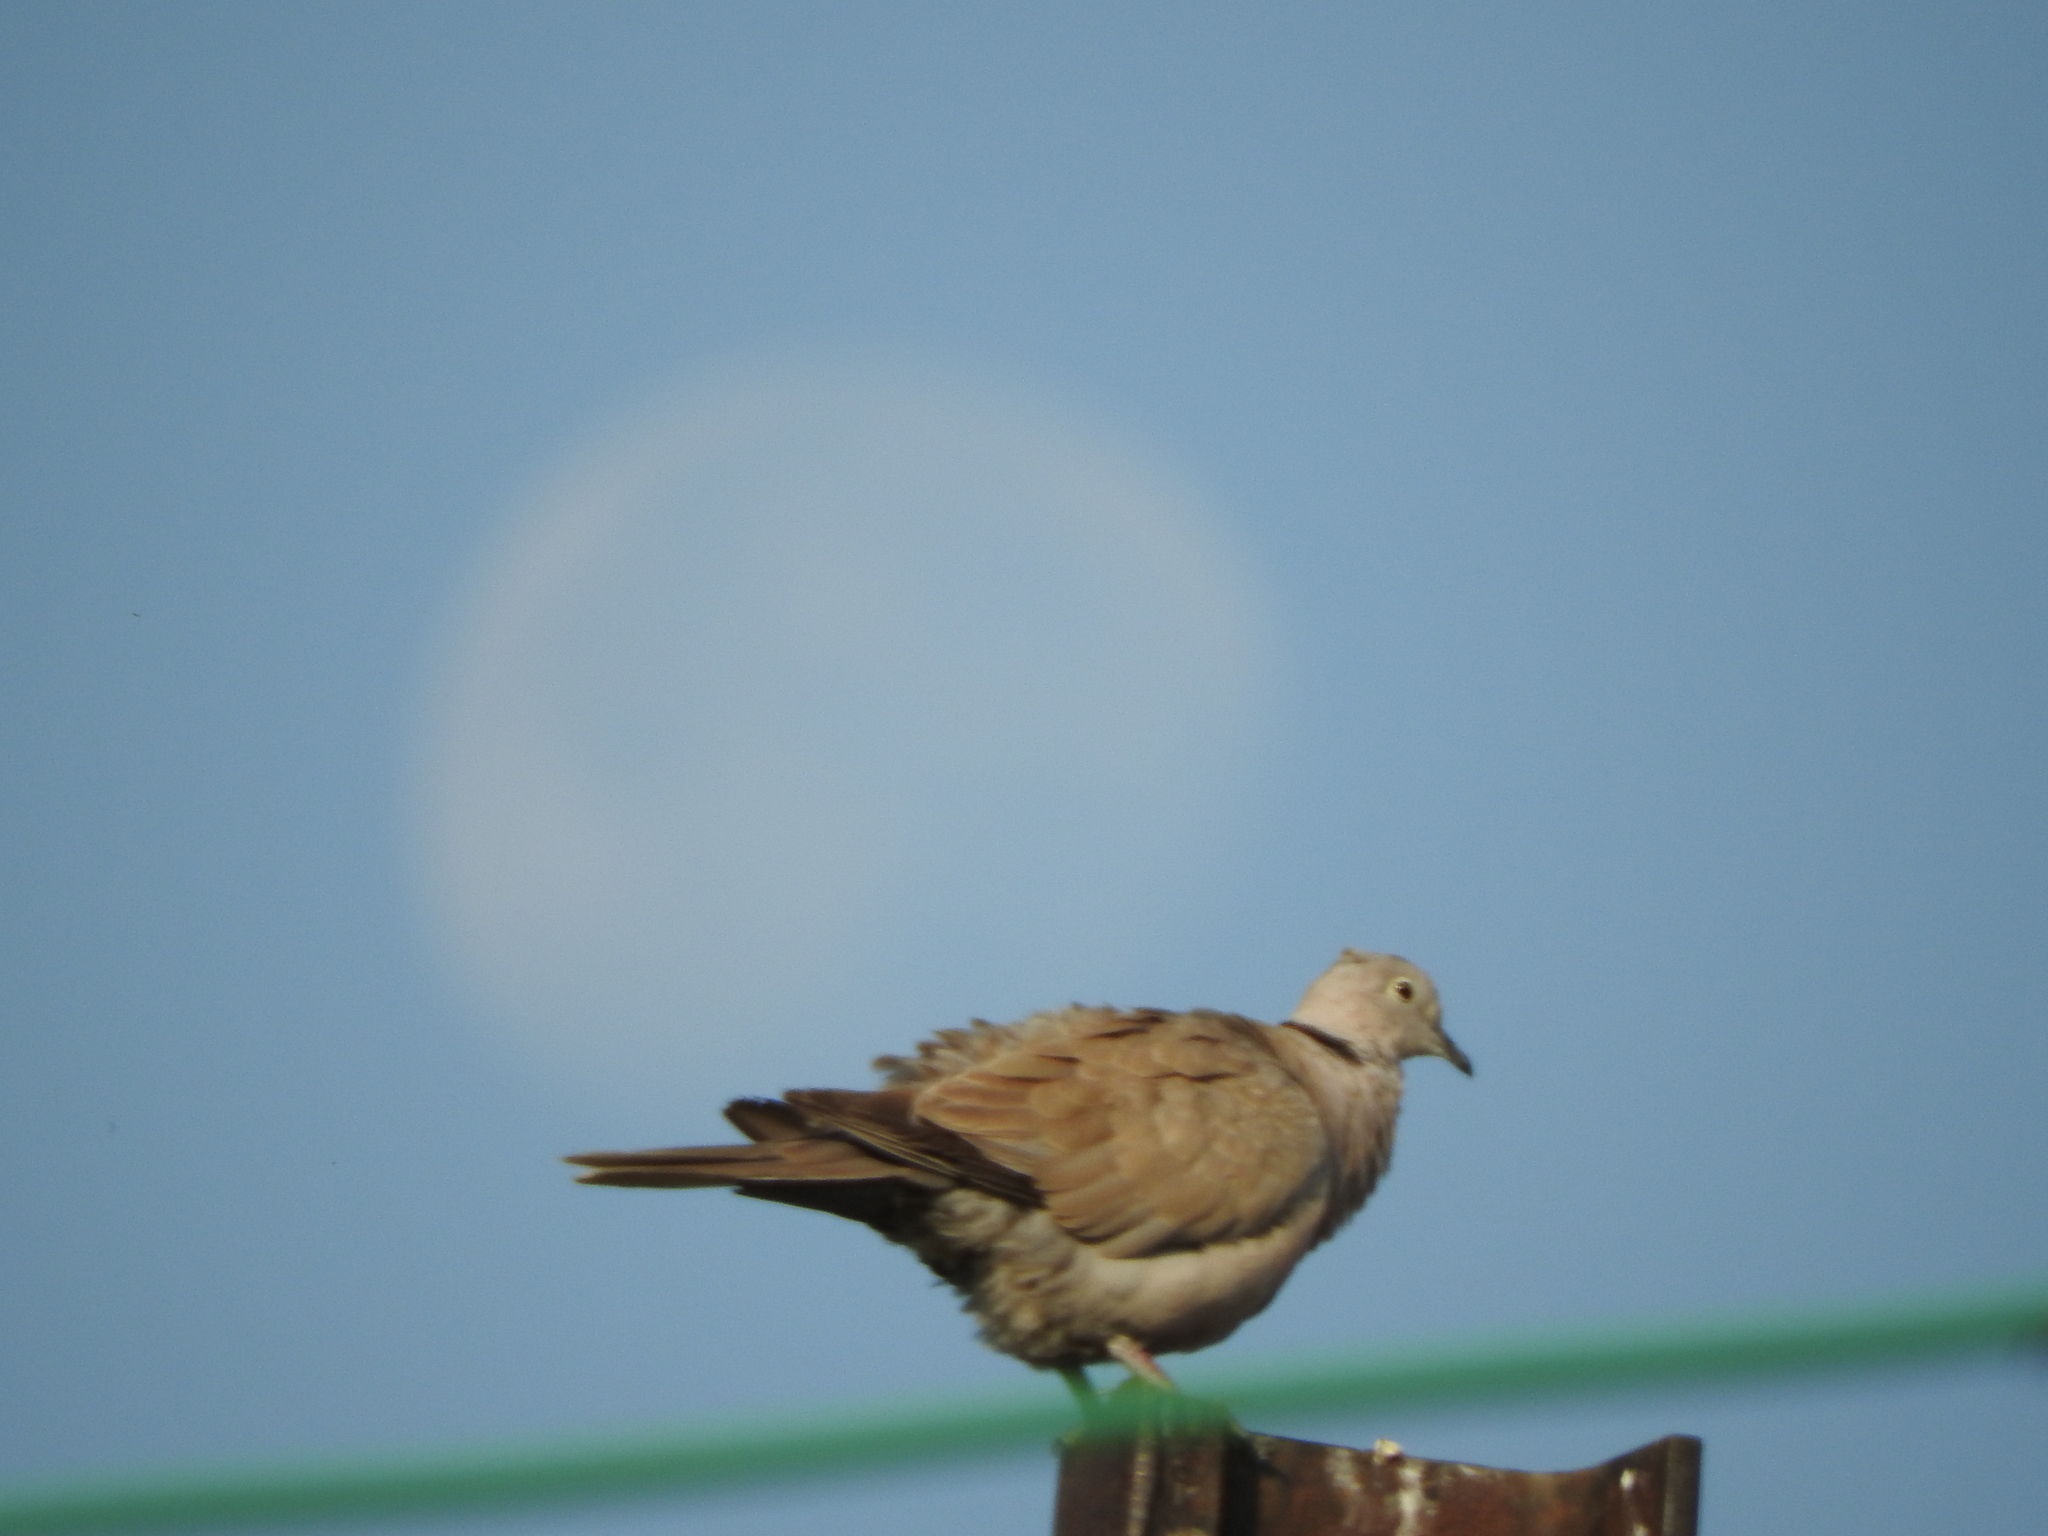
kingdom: Animalia
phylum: Chordata
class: Aves
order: Columbiformes
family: Columbidae
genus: Streptopelia
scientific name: Streptopelia decaocto
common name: Eurasian collared dove
